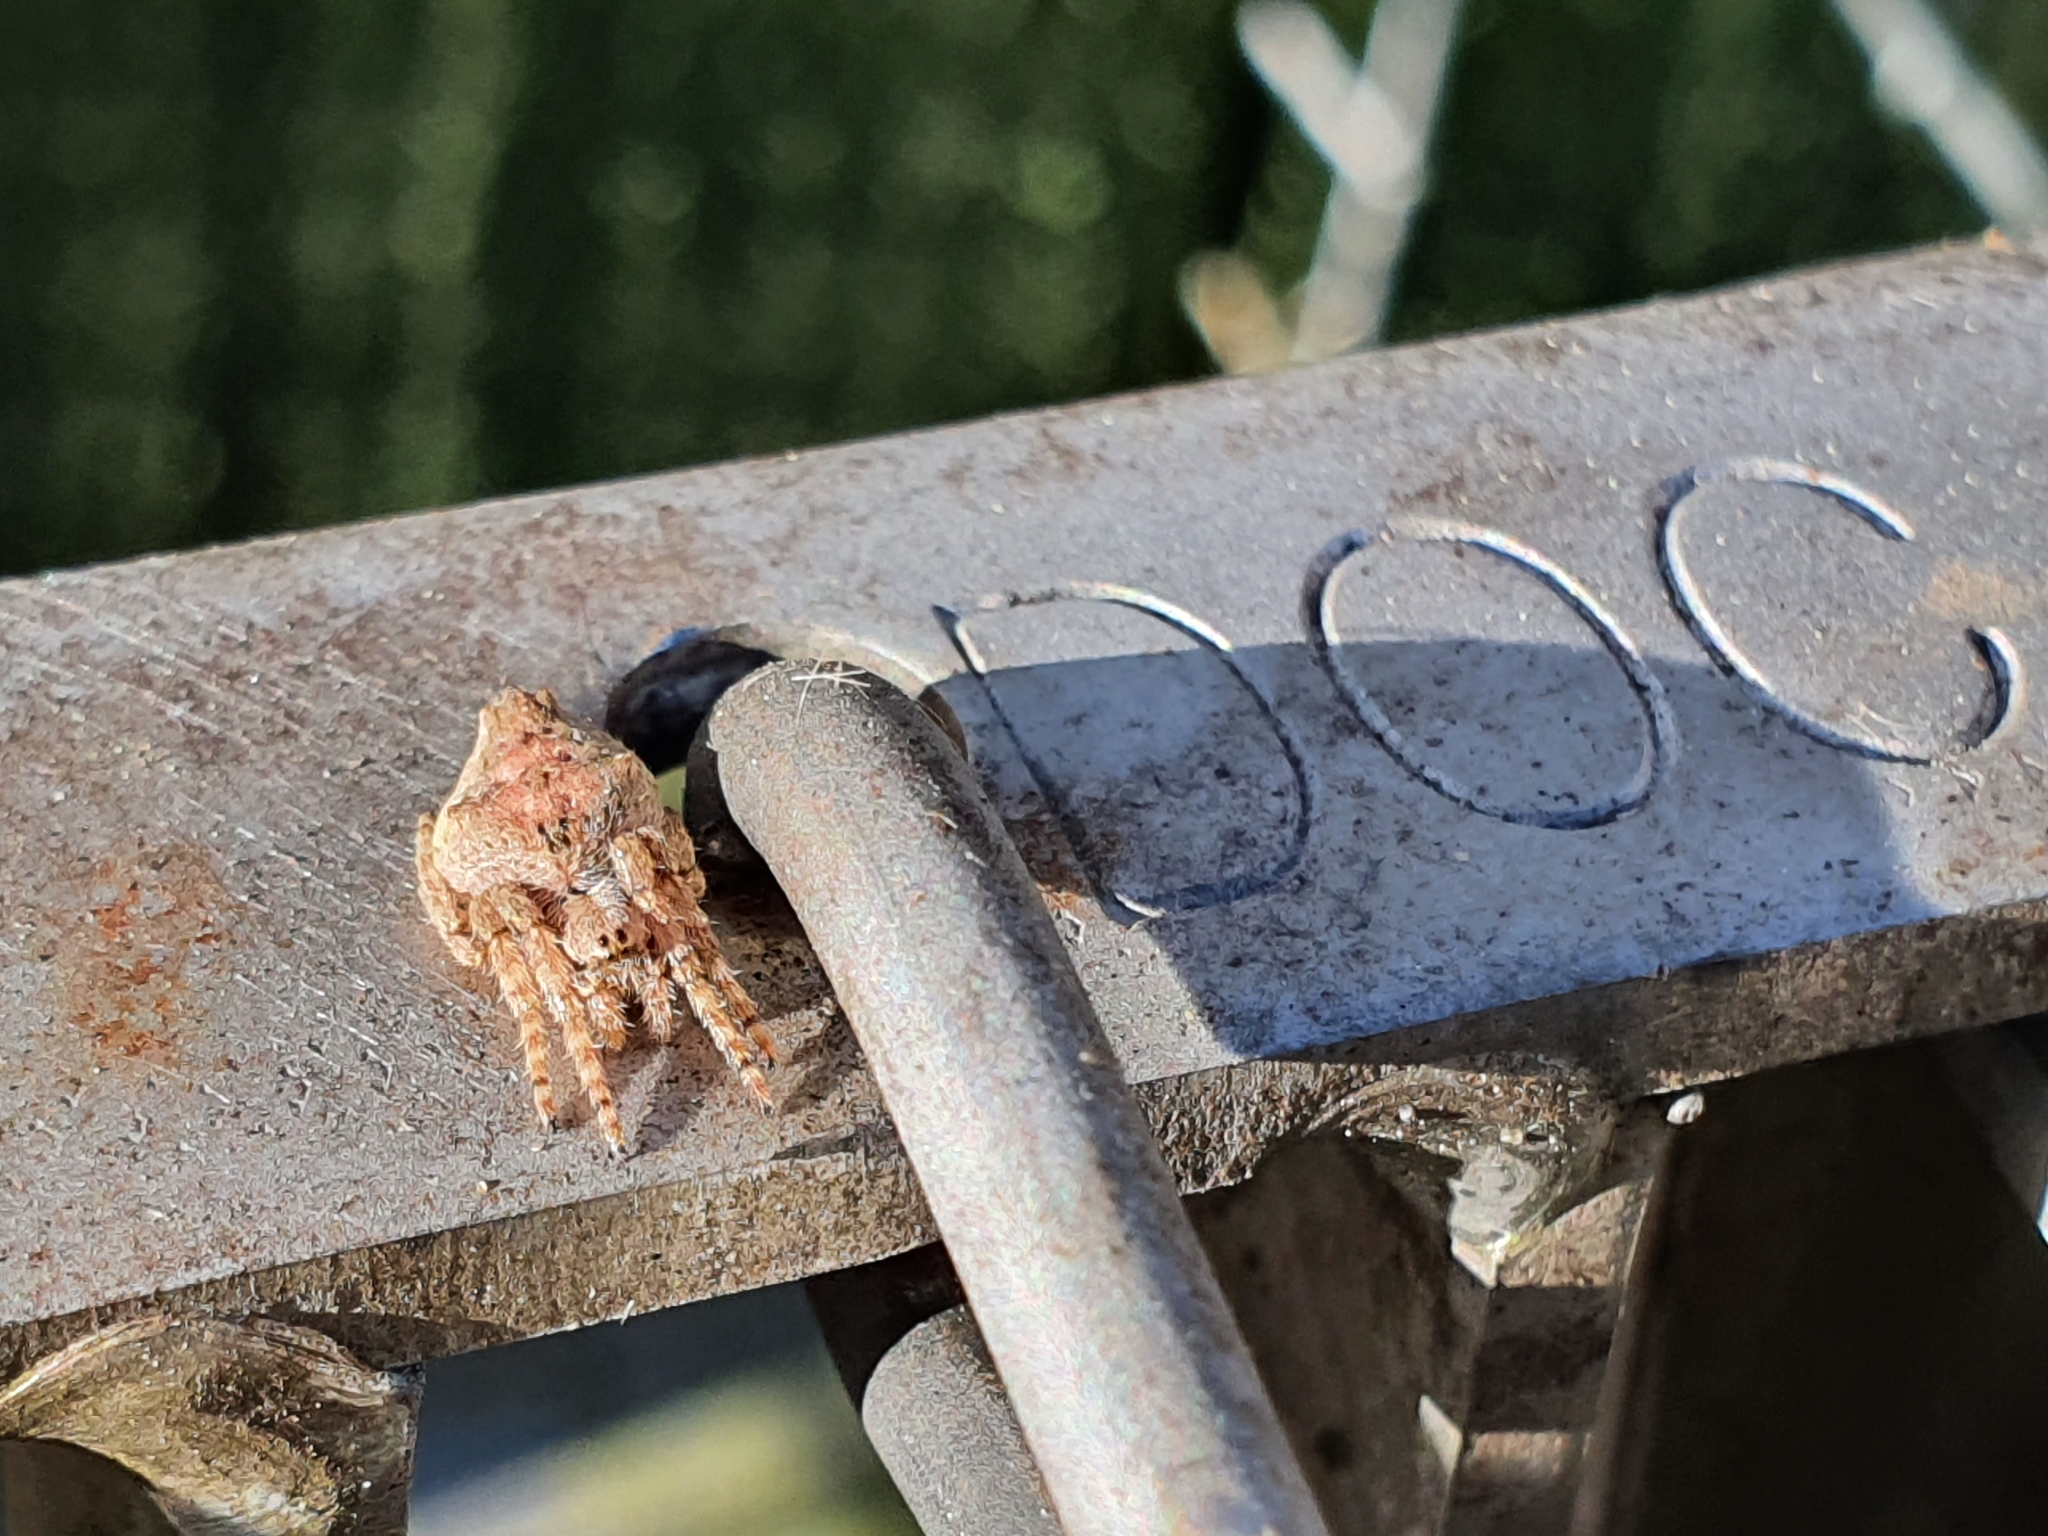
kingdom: Animalia
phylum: Arthropoda
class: Arachnida
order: Araneae
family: Araneidae
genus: Eriophora
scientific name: Eriophora pustulosa
